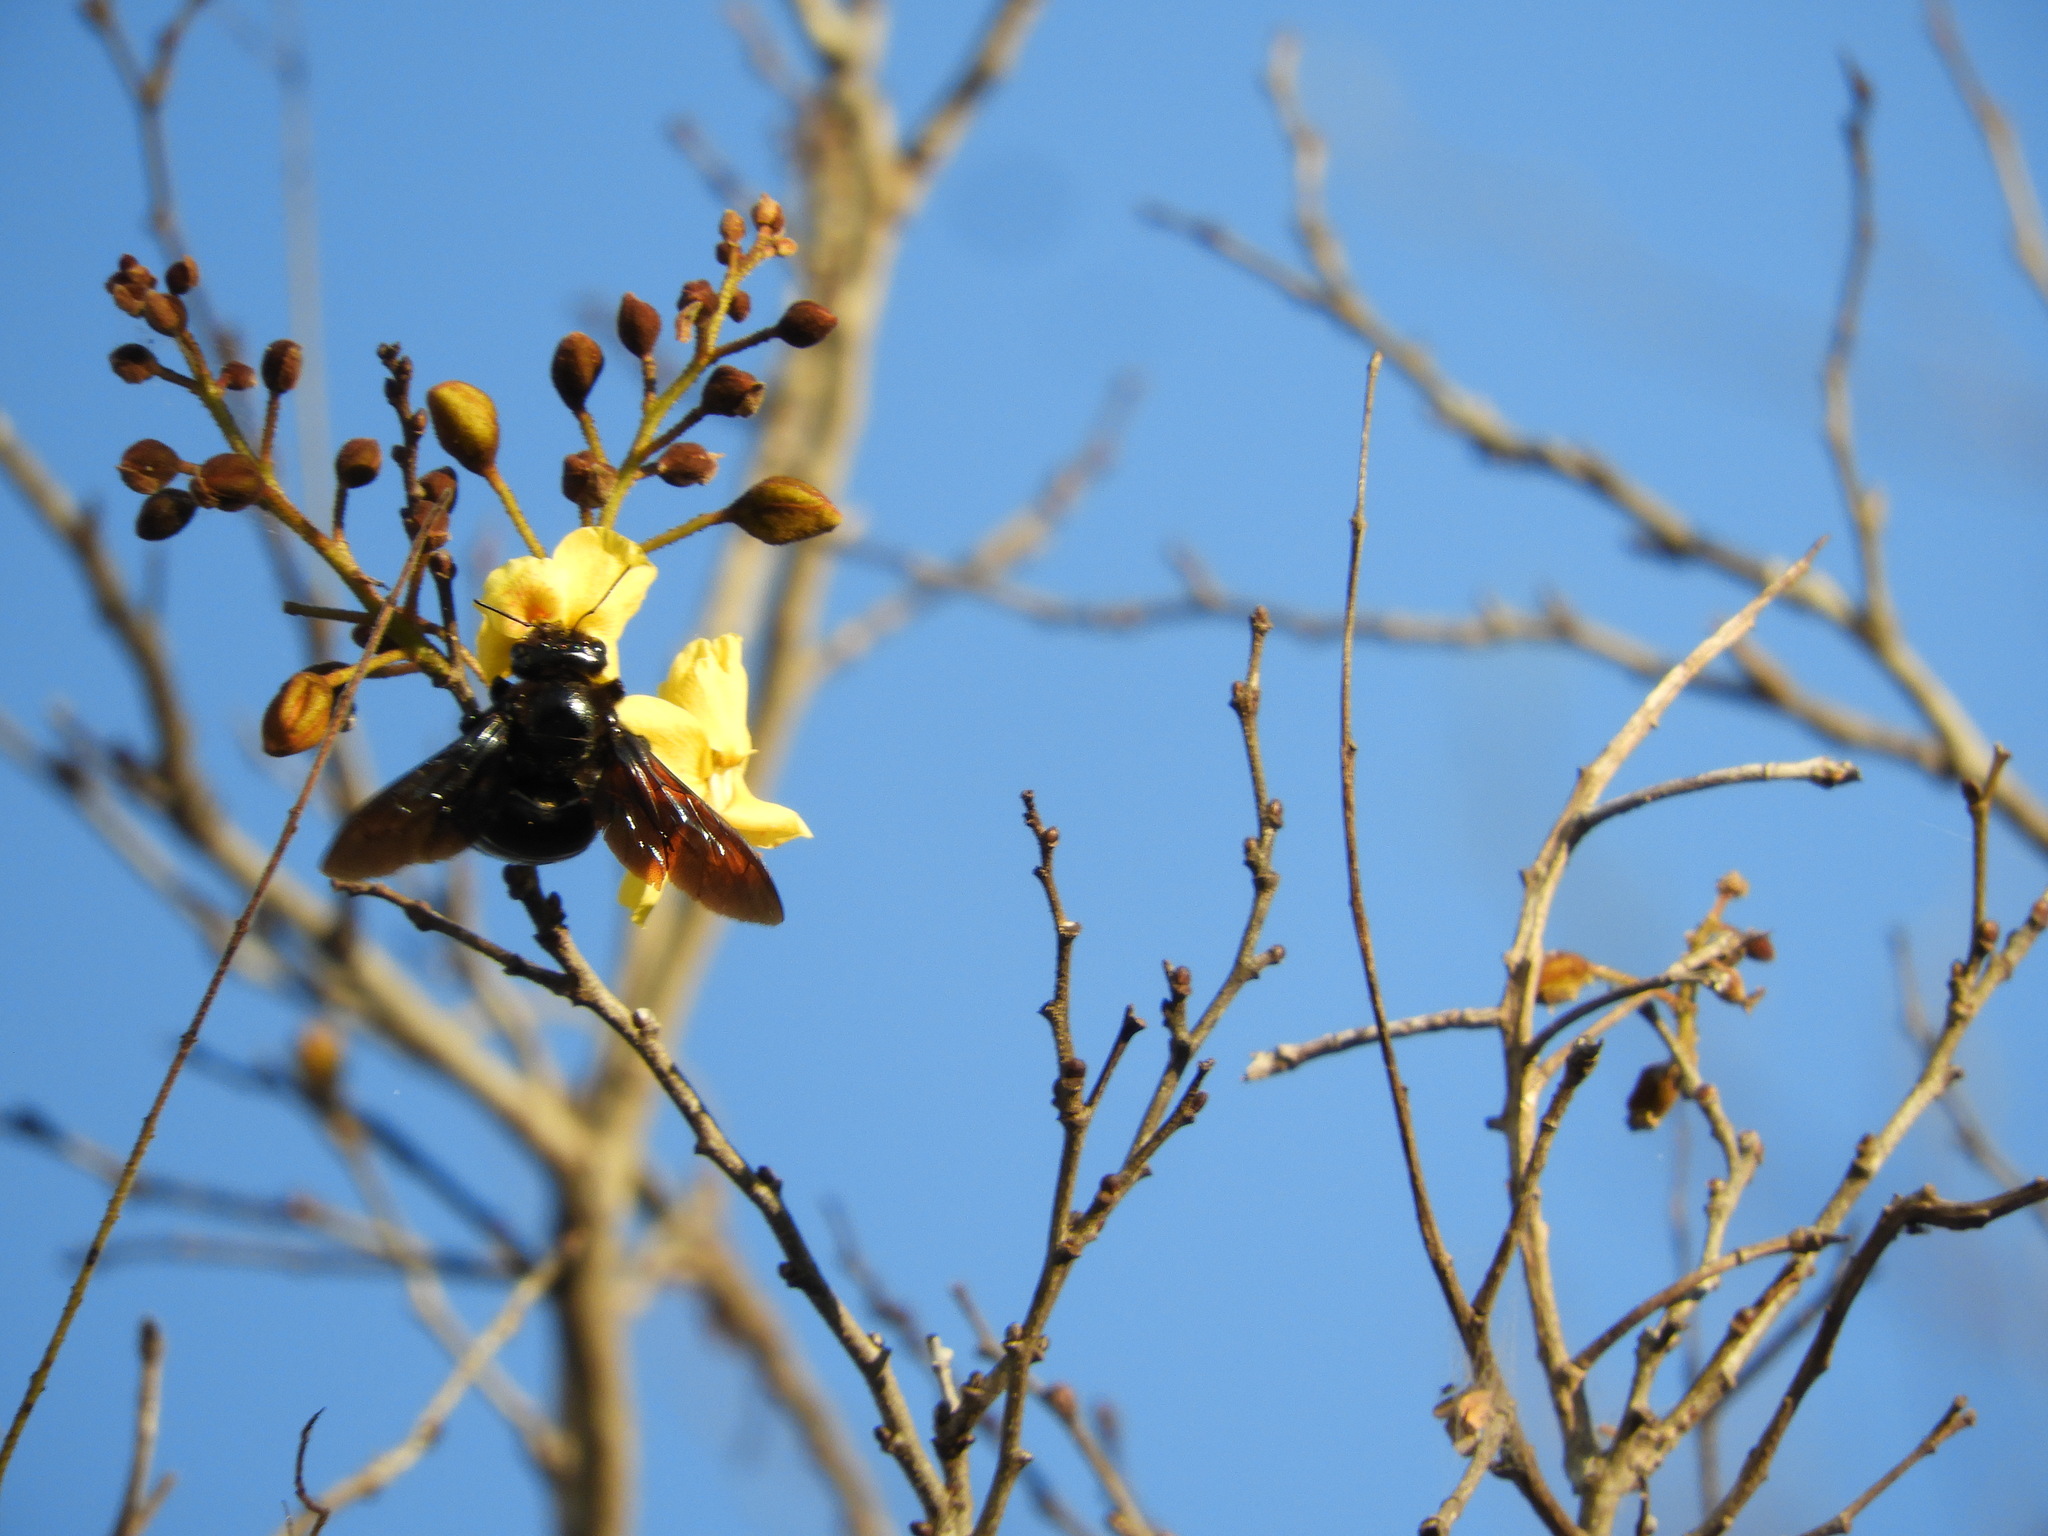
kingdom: Animalia
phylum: Arthropoda
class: Insecta
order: Hymenoptera
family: Apidae
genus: Xylocopa
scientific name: Xylocopa fimbriata
